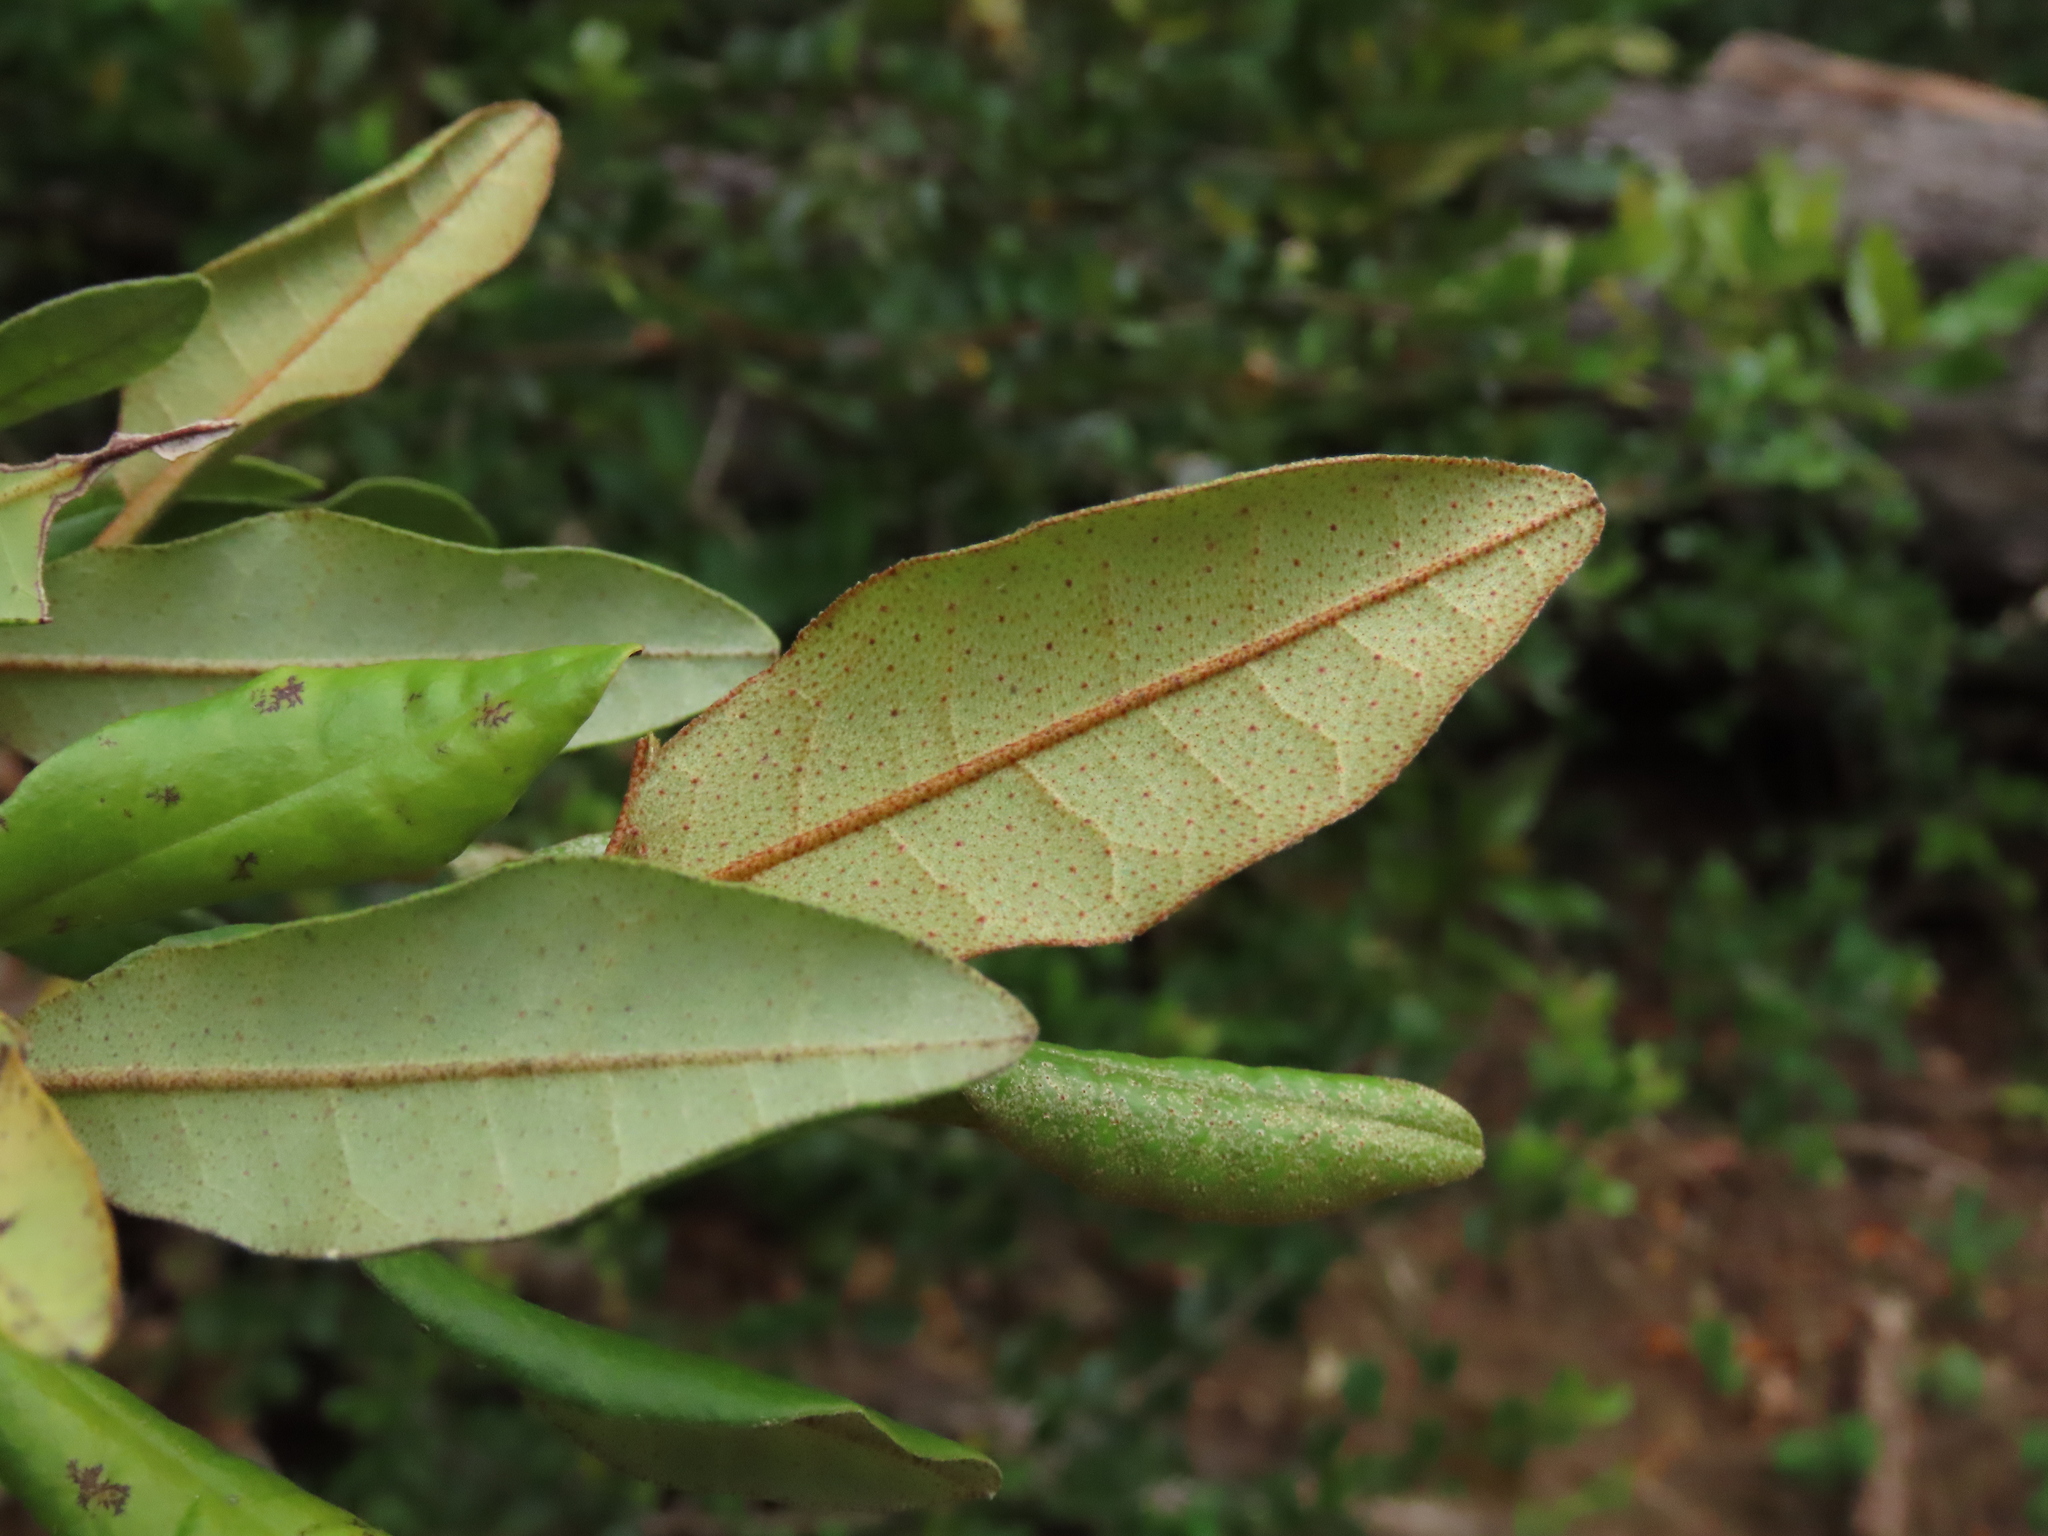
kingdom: Plantae
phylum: Tracheophyta
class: Magnoliopsida
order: Berberidopsidales
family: Aextoxicaceae
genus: Aextoxicon
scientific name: Aextoxicon punctatum
